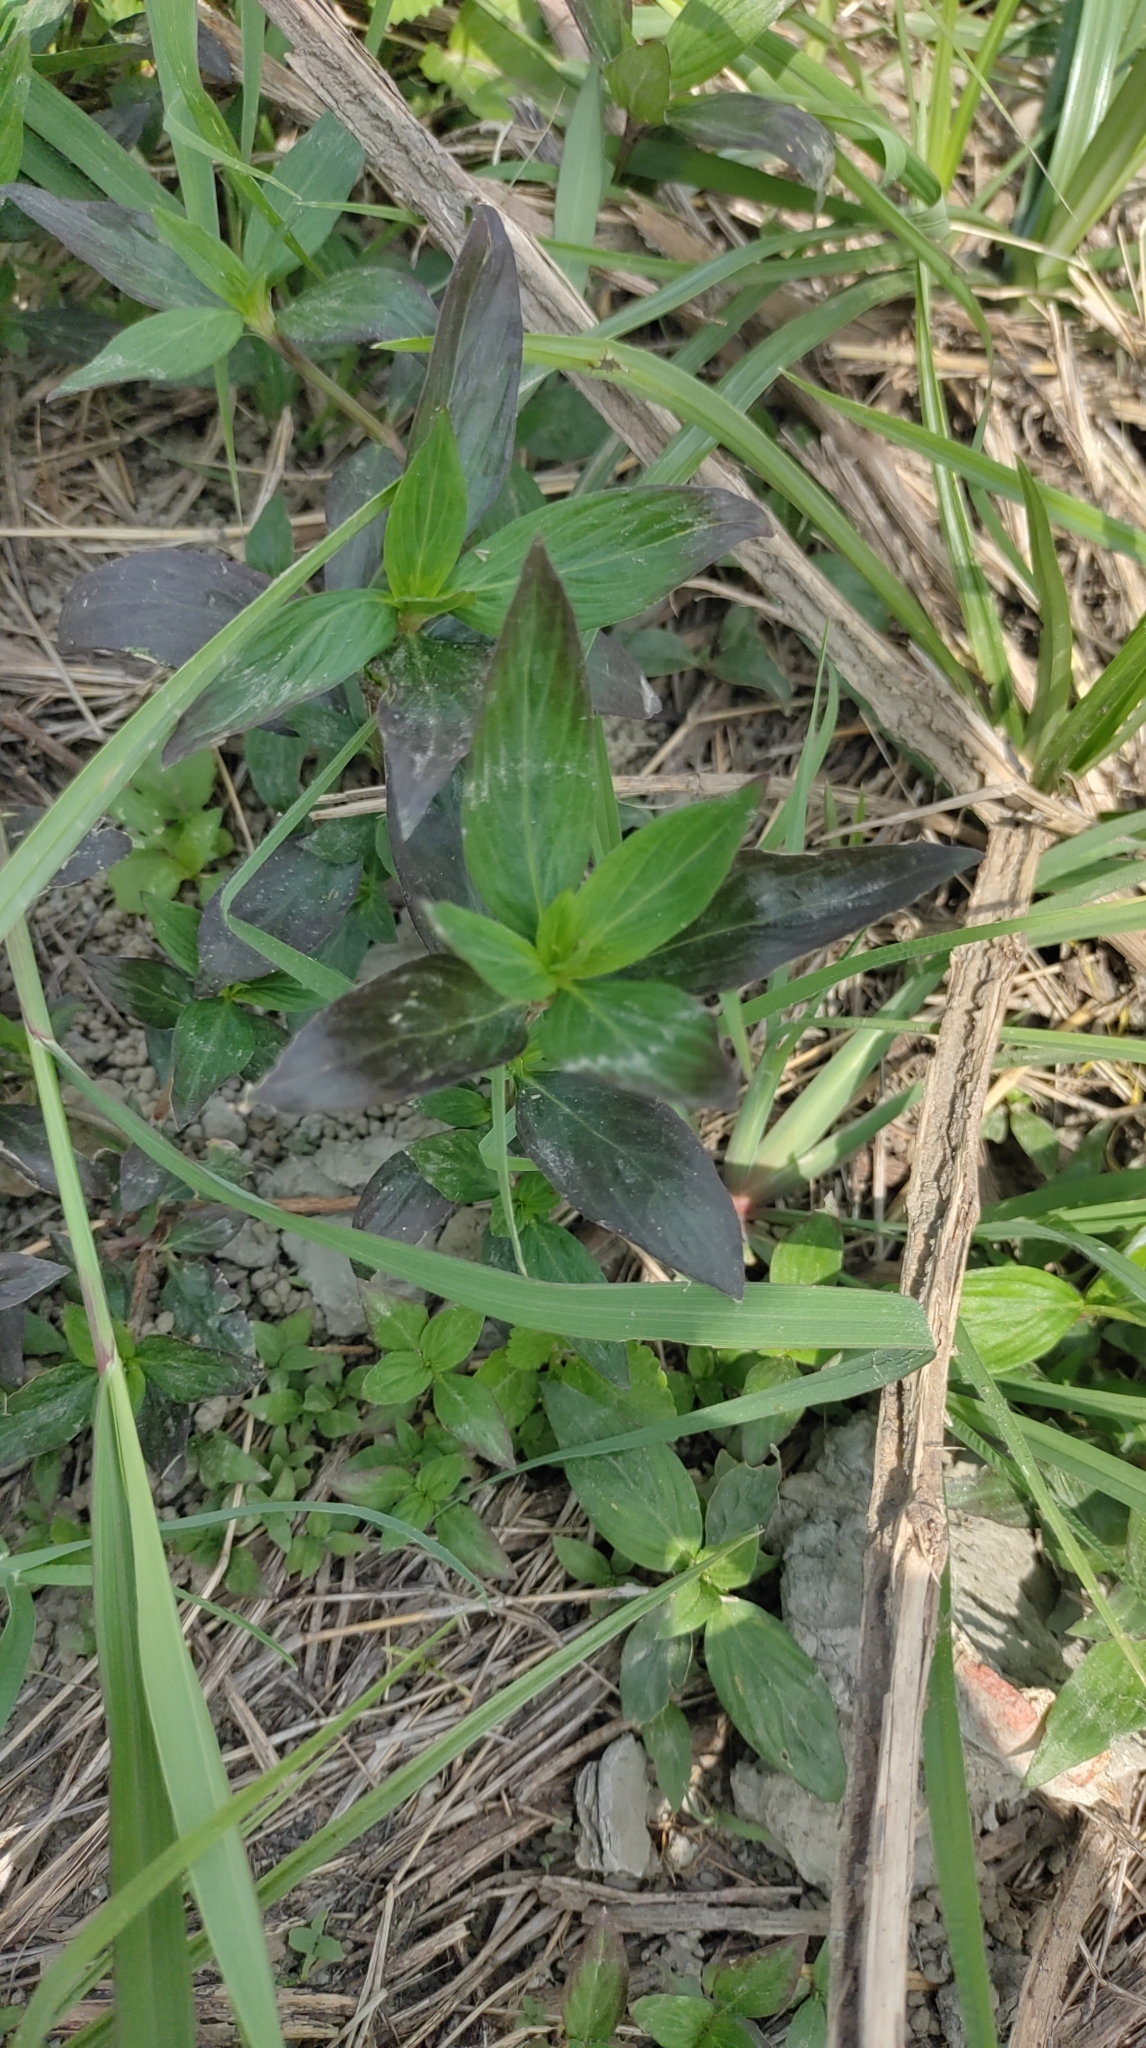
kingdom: Plantae
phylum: Tracheophyta
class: Magnoliopsida
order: Gentianales
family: Rubiaceae
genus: Spermacoce
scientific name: Spermacoce remota
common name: Woodland false buttonweed
